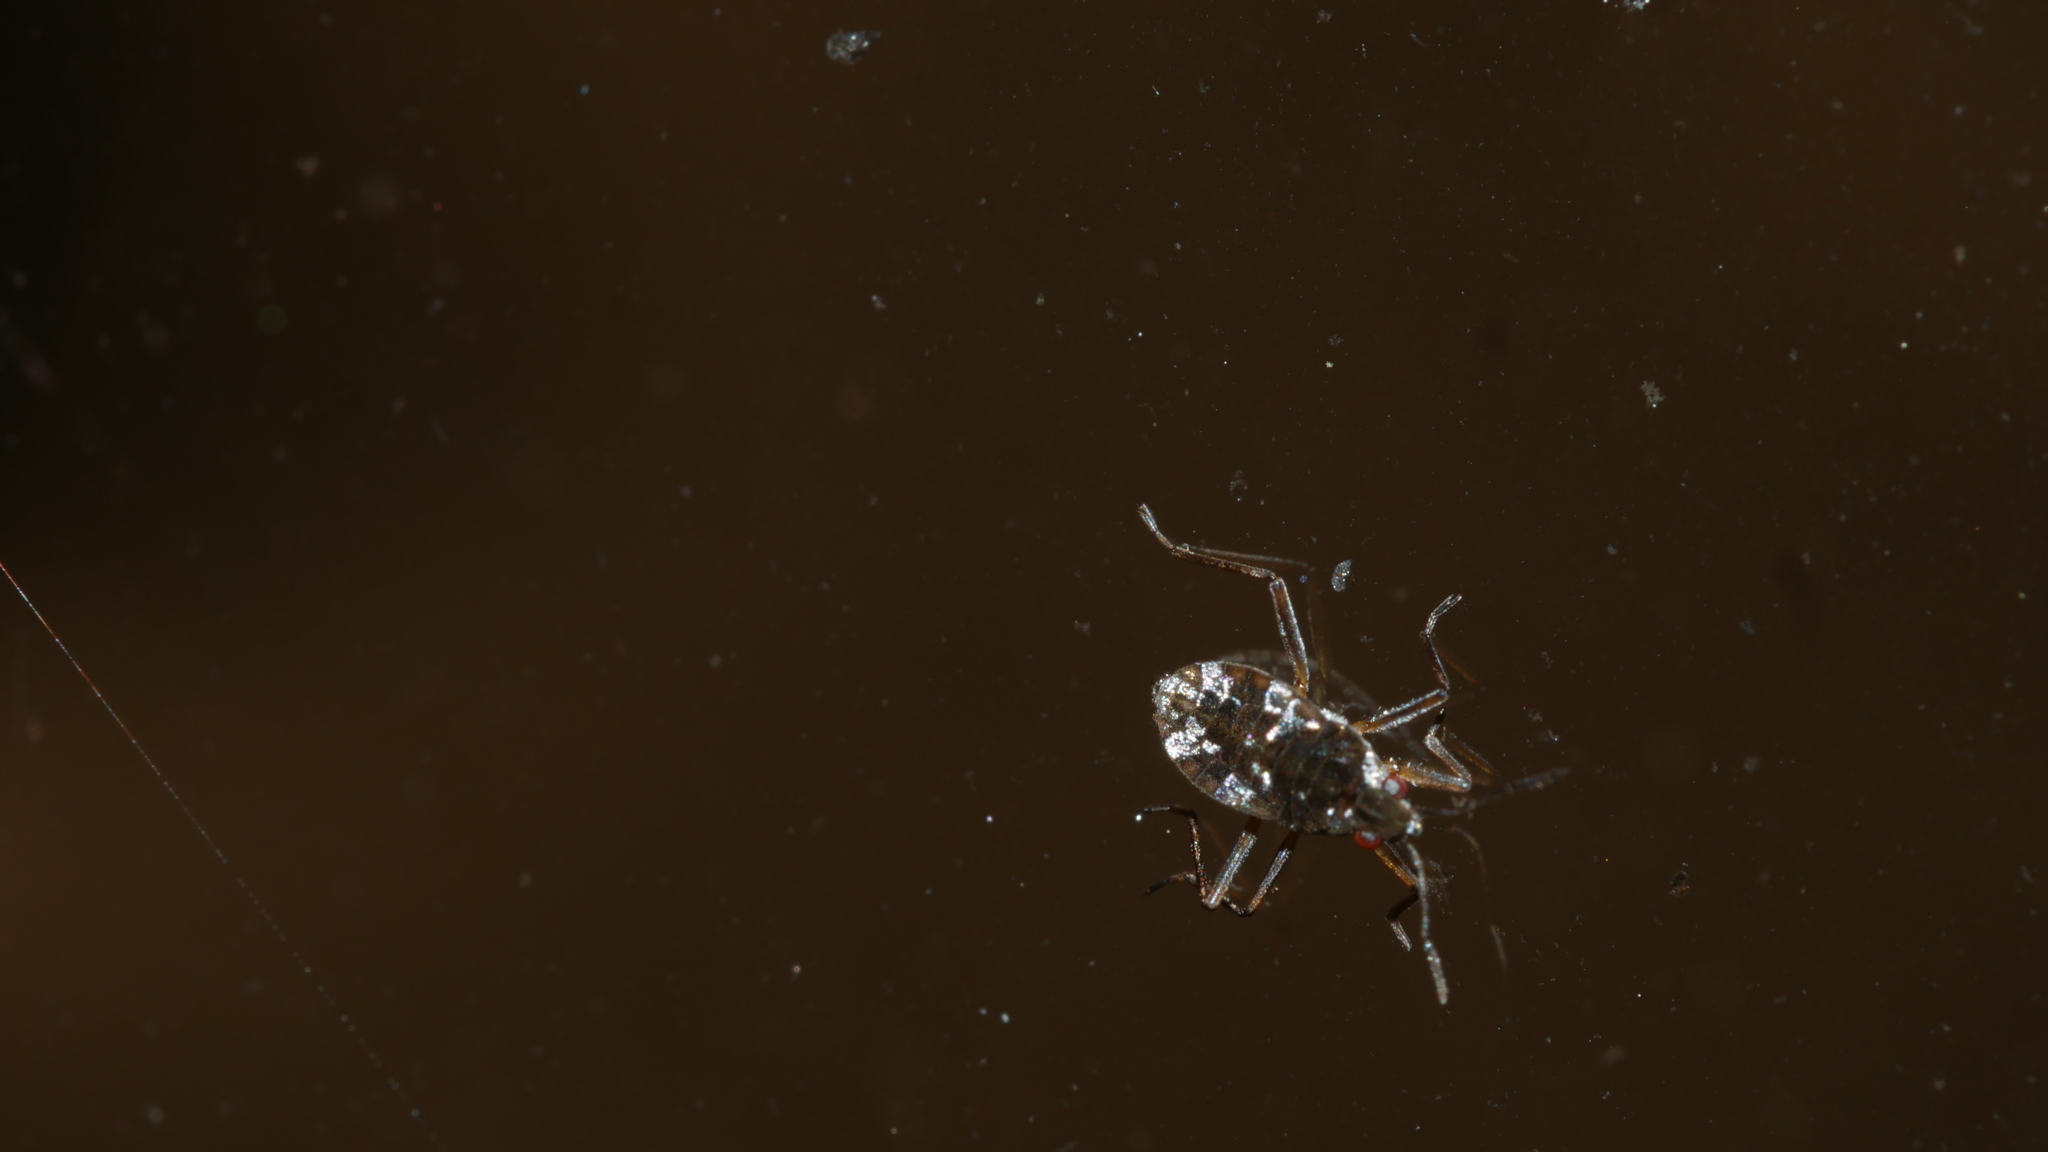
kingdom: Animalia
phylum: Arthropoda
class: Insecta
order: Hemiptera
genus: Kirkaldya
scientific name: Kirkaldya
